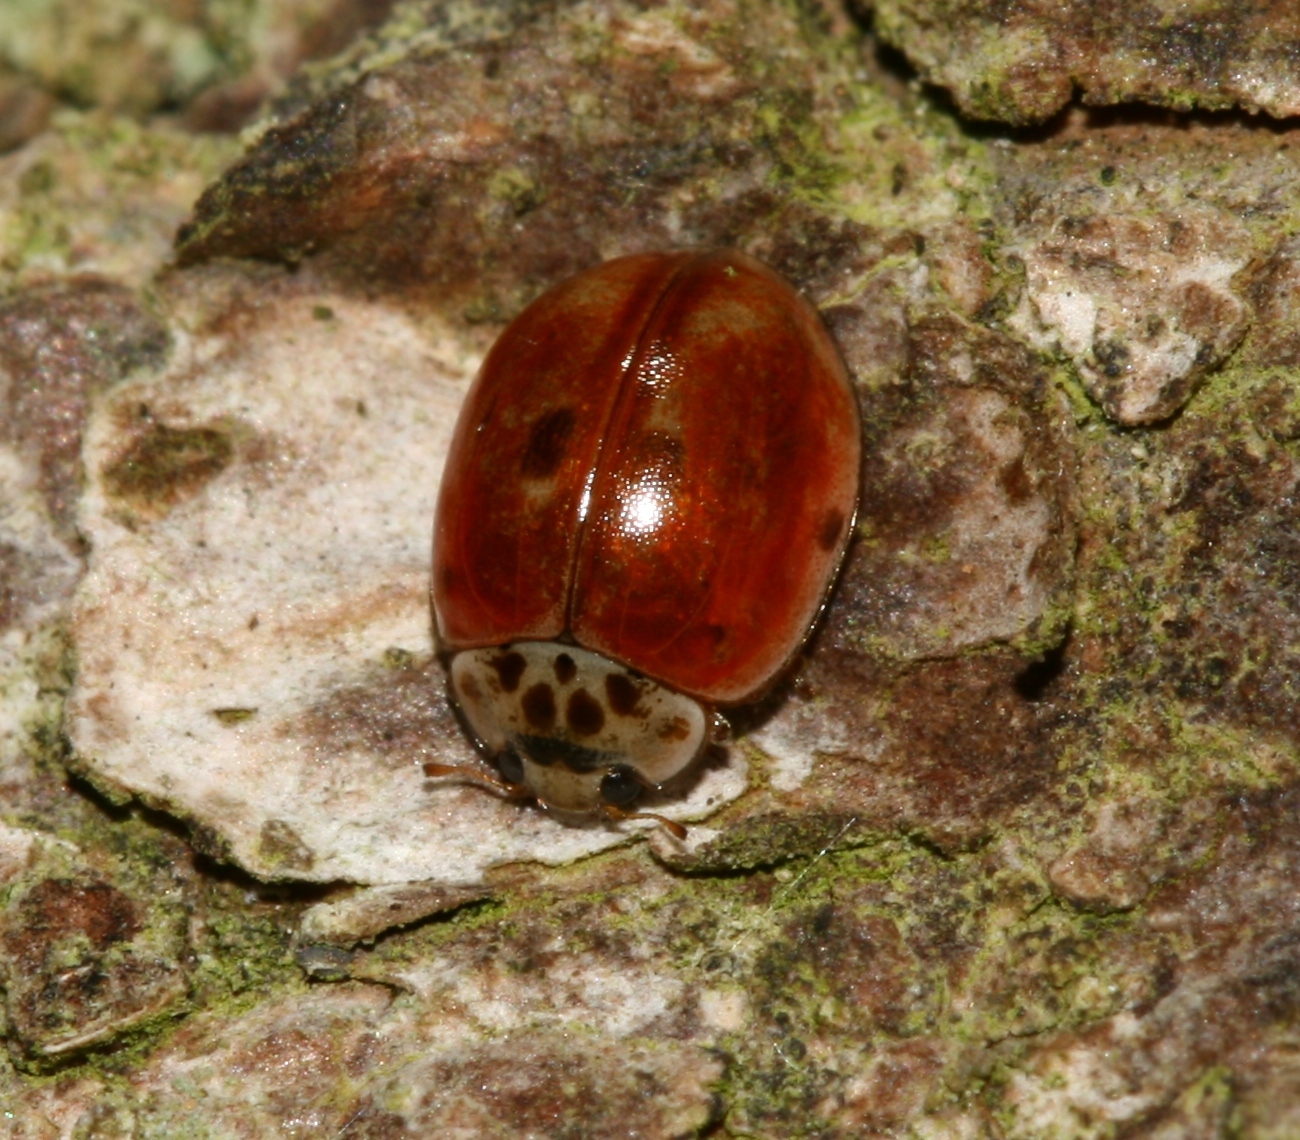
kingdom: Animalia
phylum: Arthropoda
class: Insecta
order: Coleoptera
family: Coccinellidae
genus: Adalia
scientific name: Adalia decempunctata
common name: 10-spot ladybird
